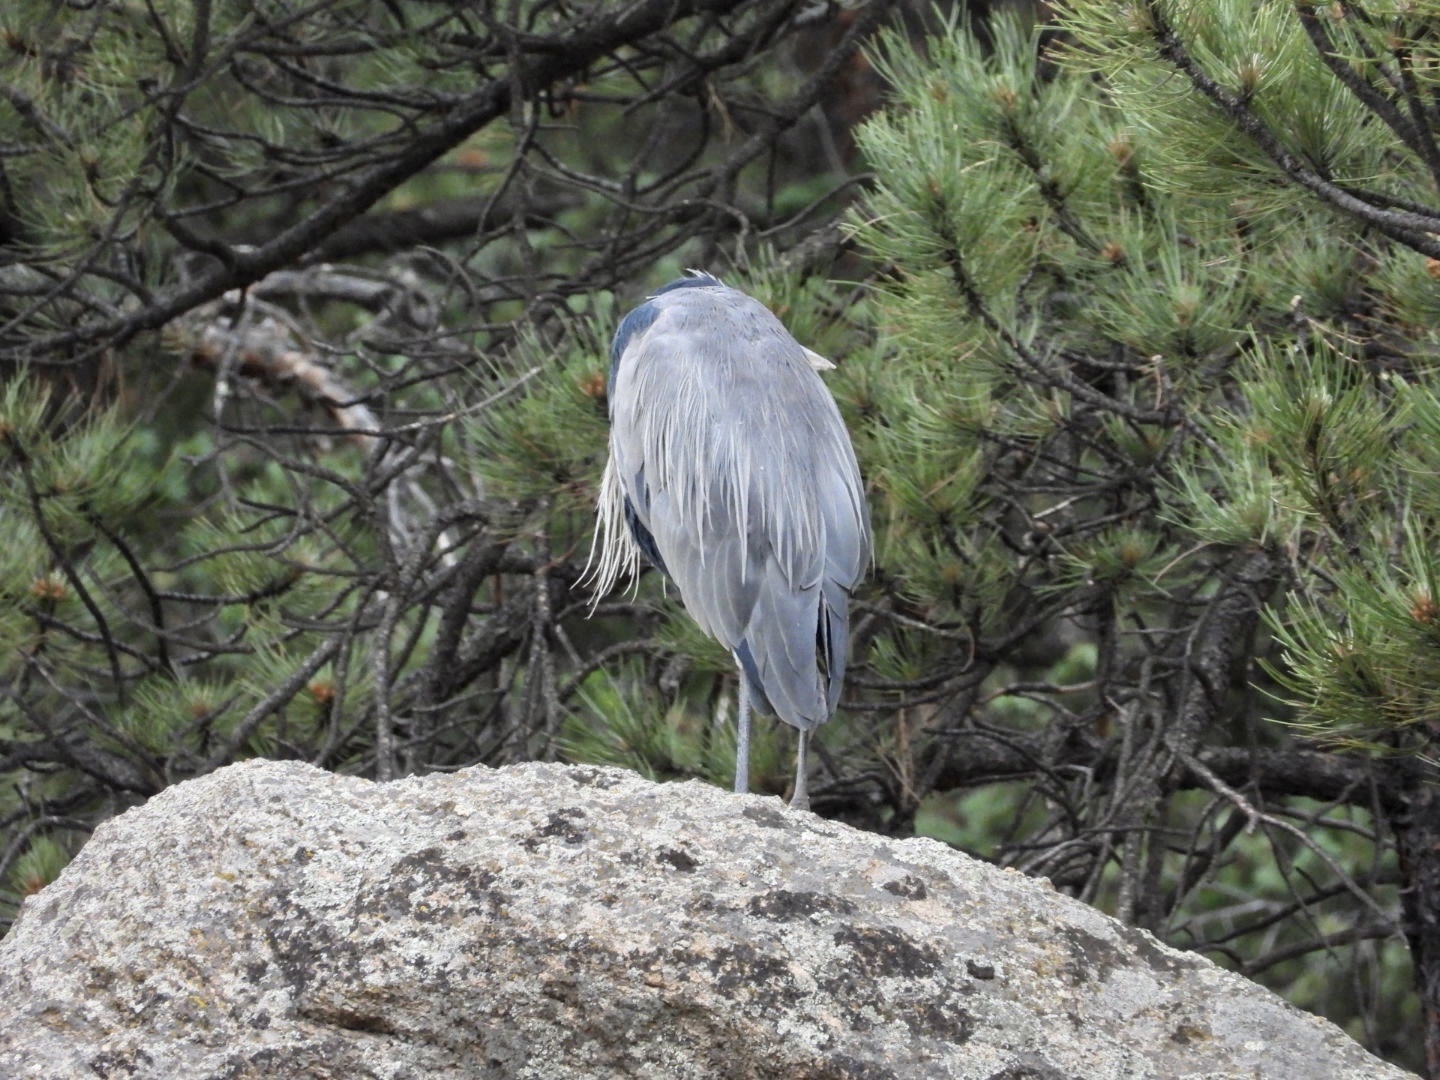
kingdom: Animalia
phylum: Chordata
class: Aves
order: Pelecaniformes
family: Ardeidae
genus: Ardea
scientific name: Ardea herodias
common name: Great blue heron
